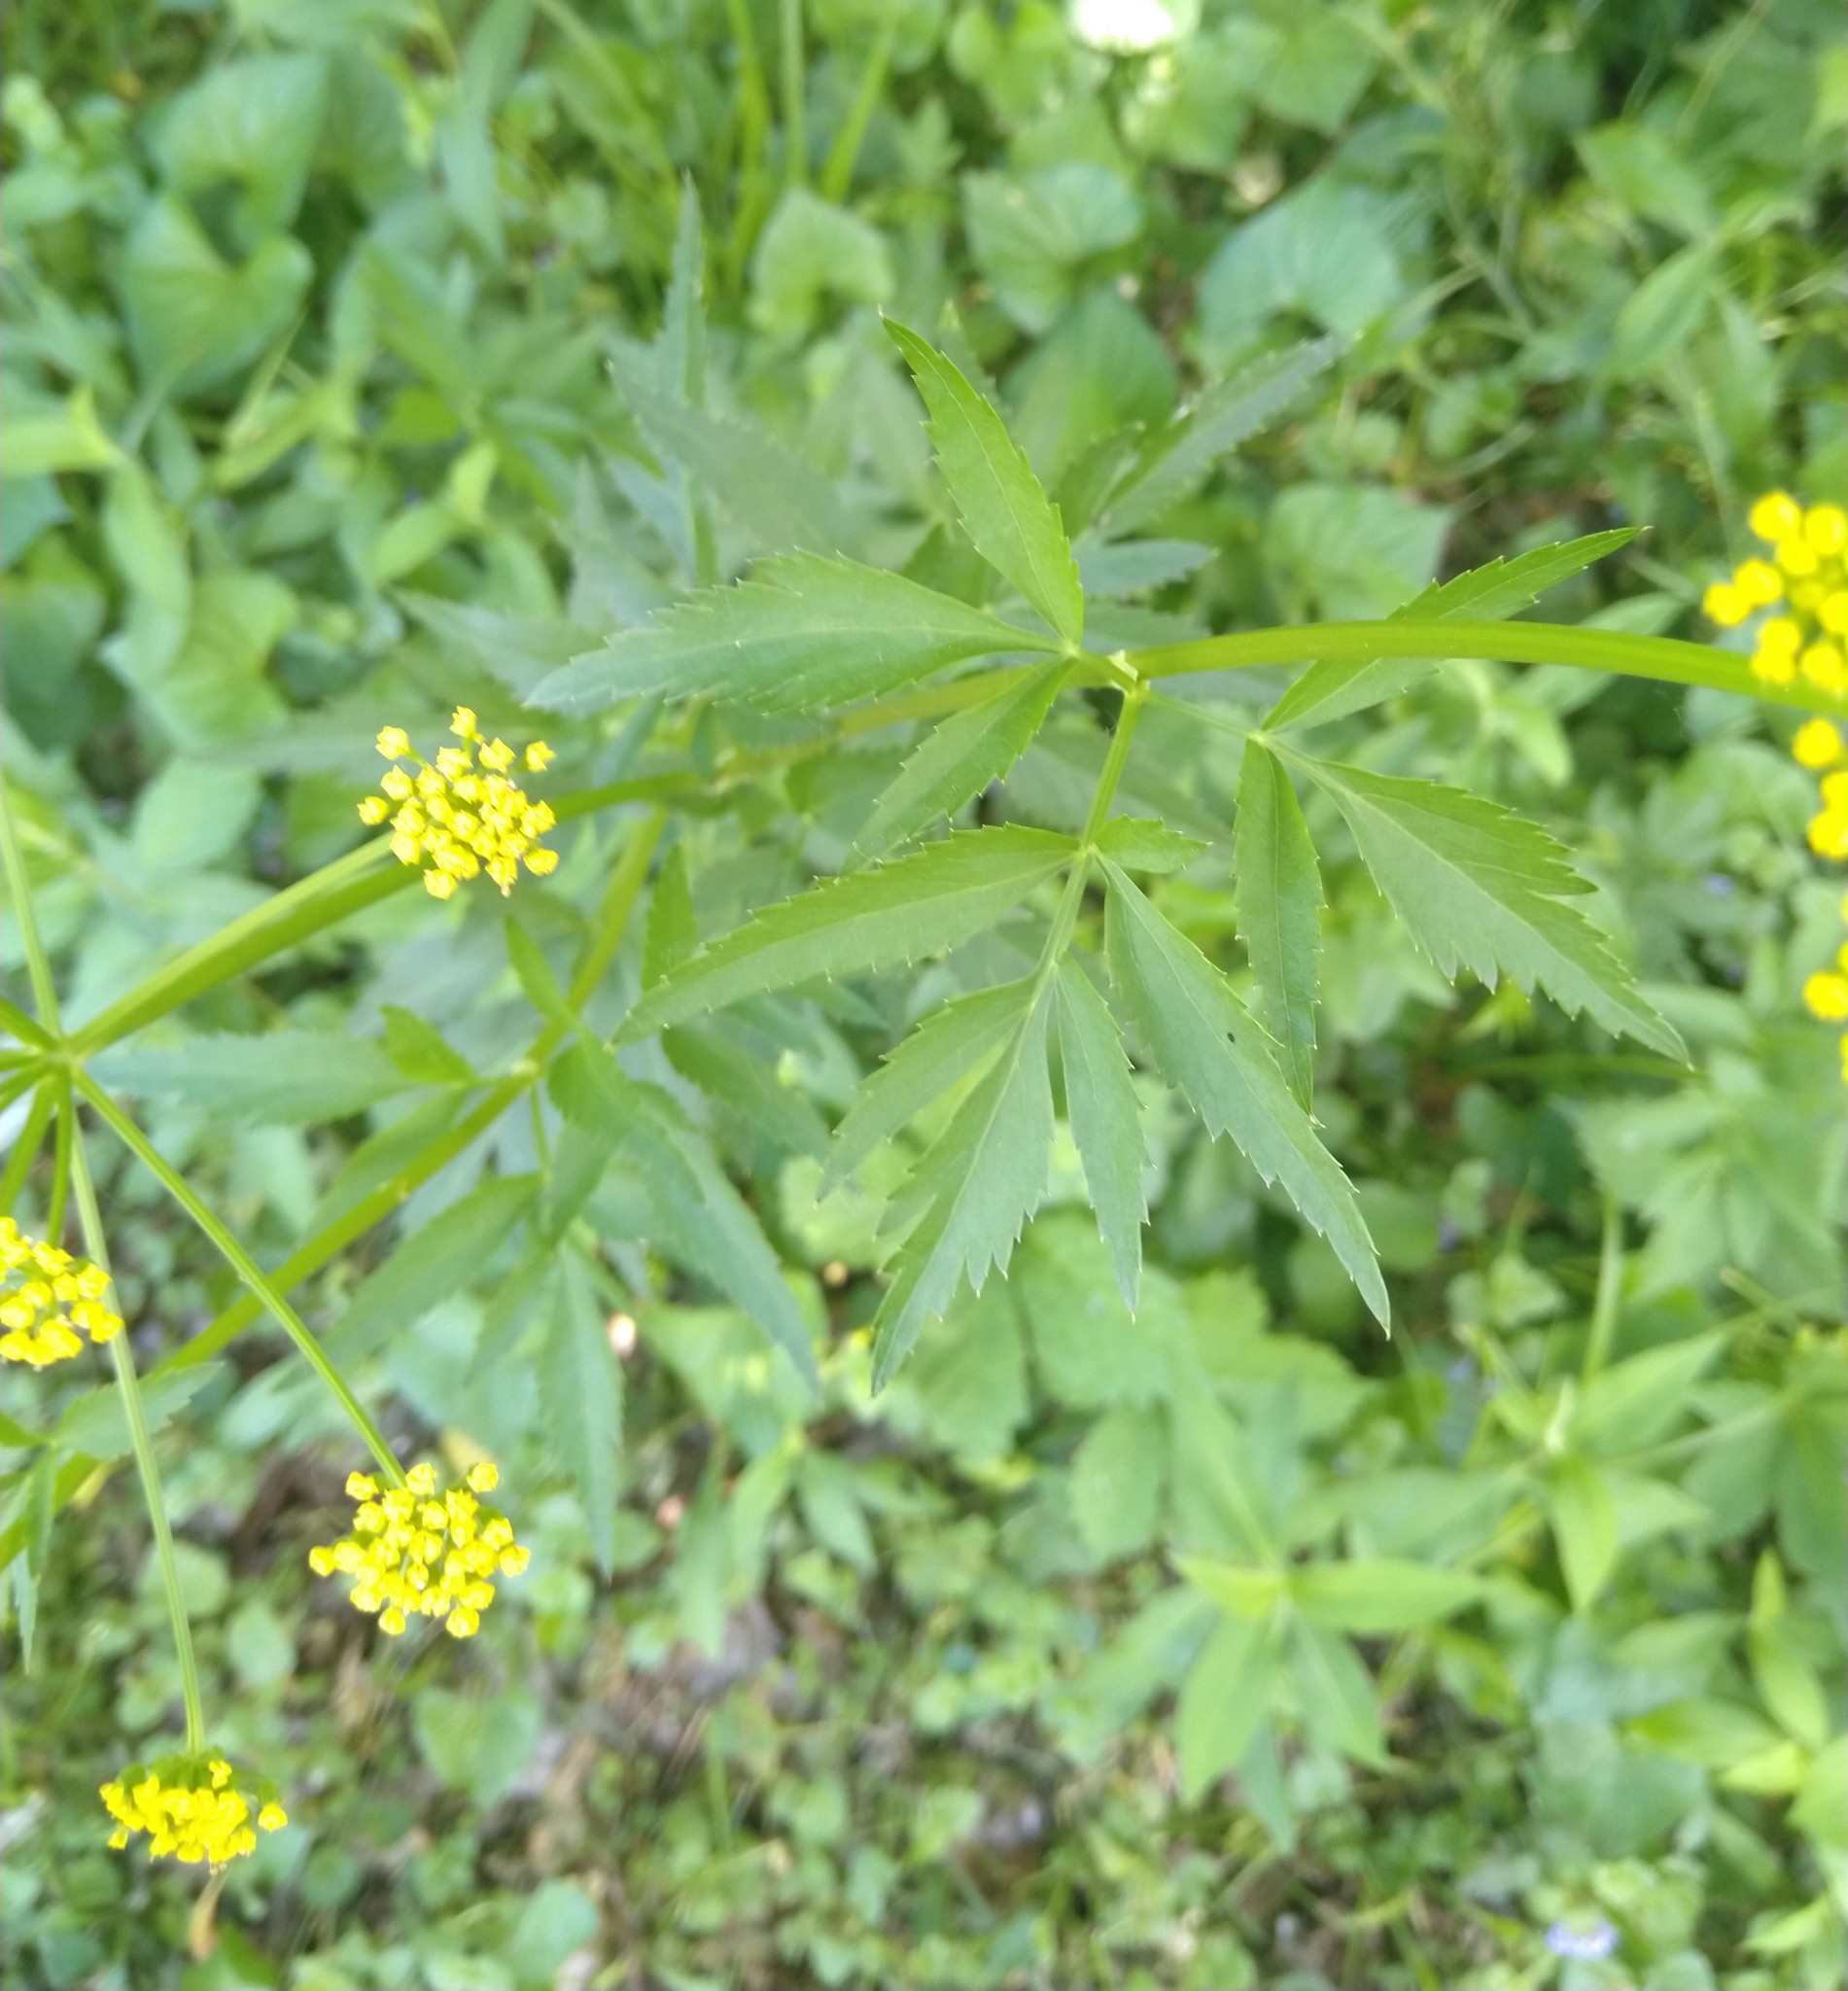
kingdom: Plantae
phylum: Tracheophyta
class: Magnoliopsida
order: Apiales
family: Apiaceae
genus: Zizia
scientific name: Zizia aurea
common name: Golden alexanders
